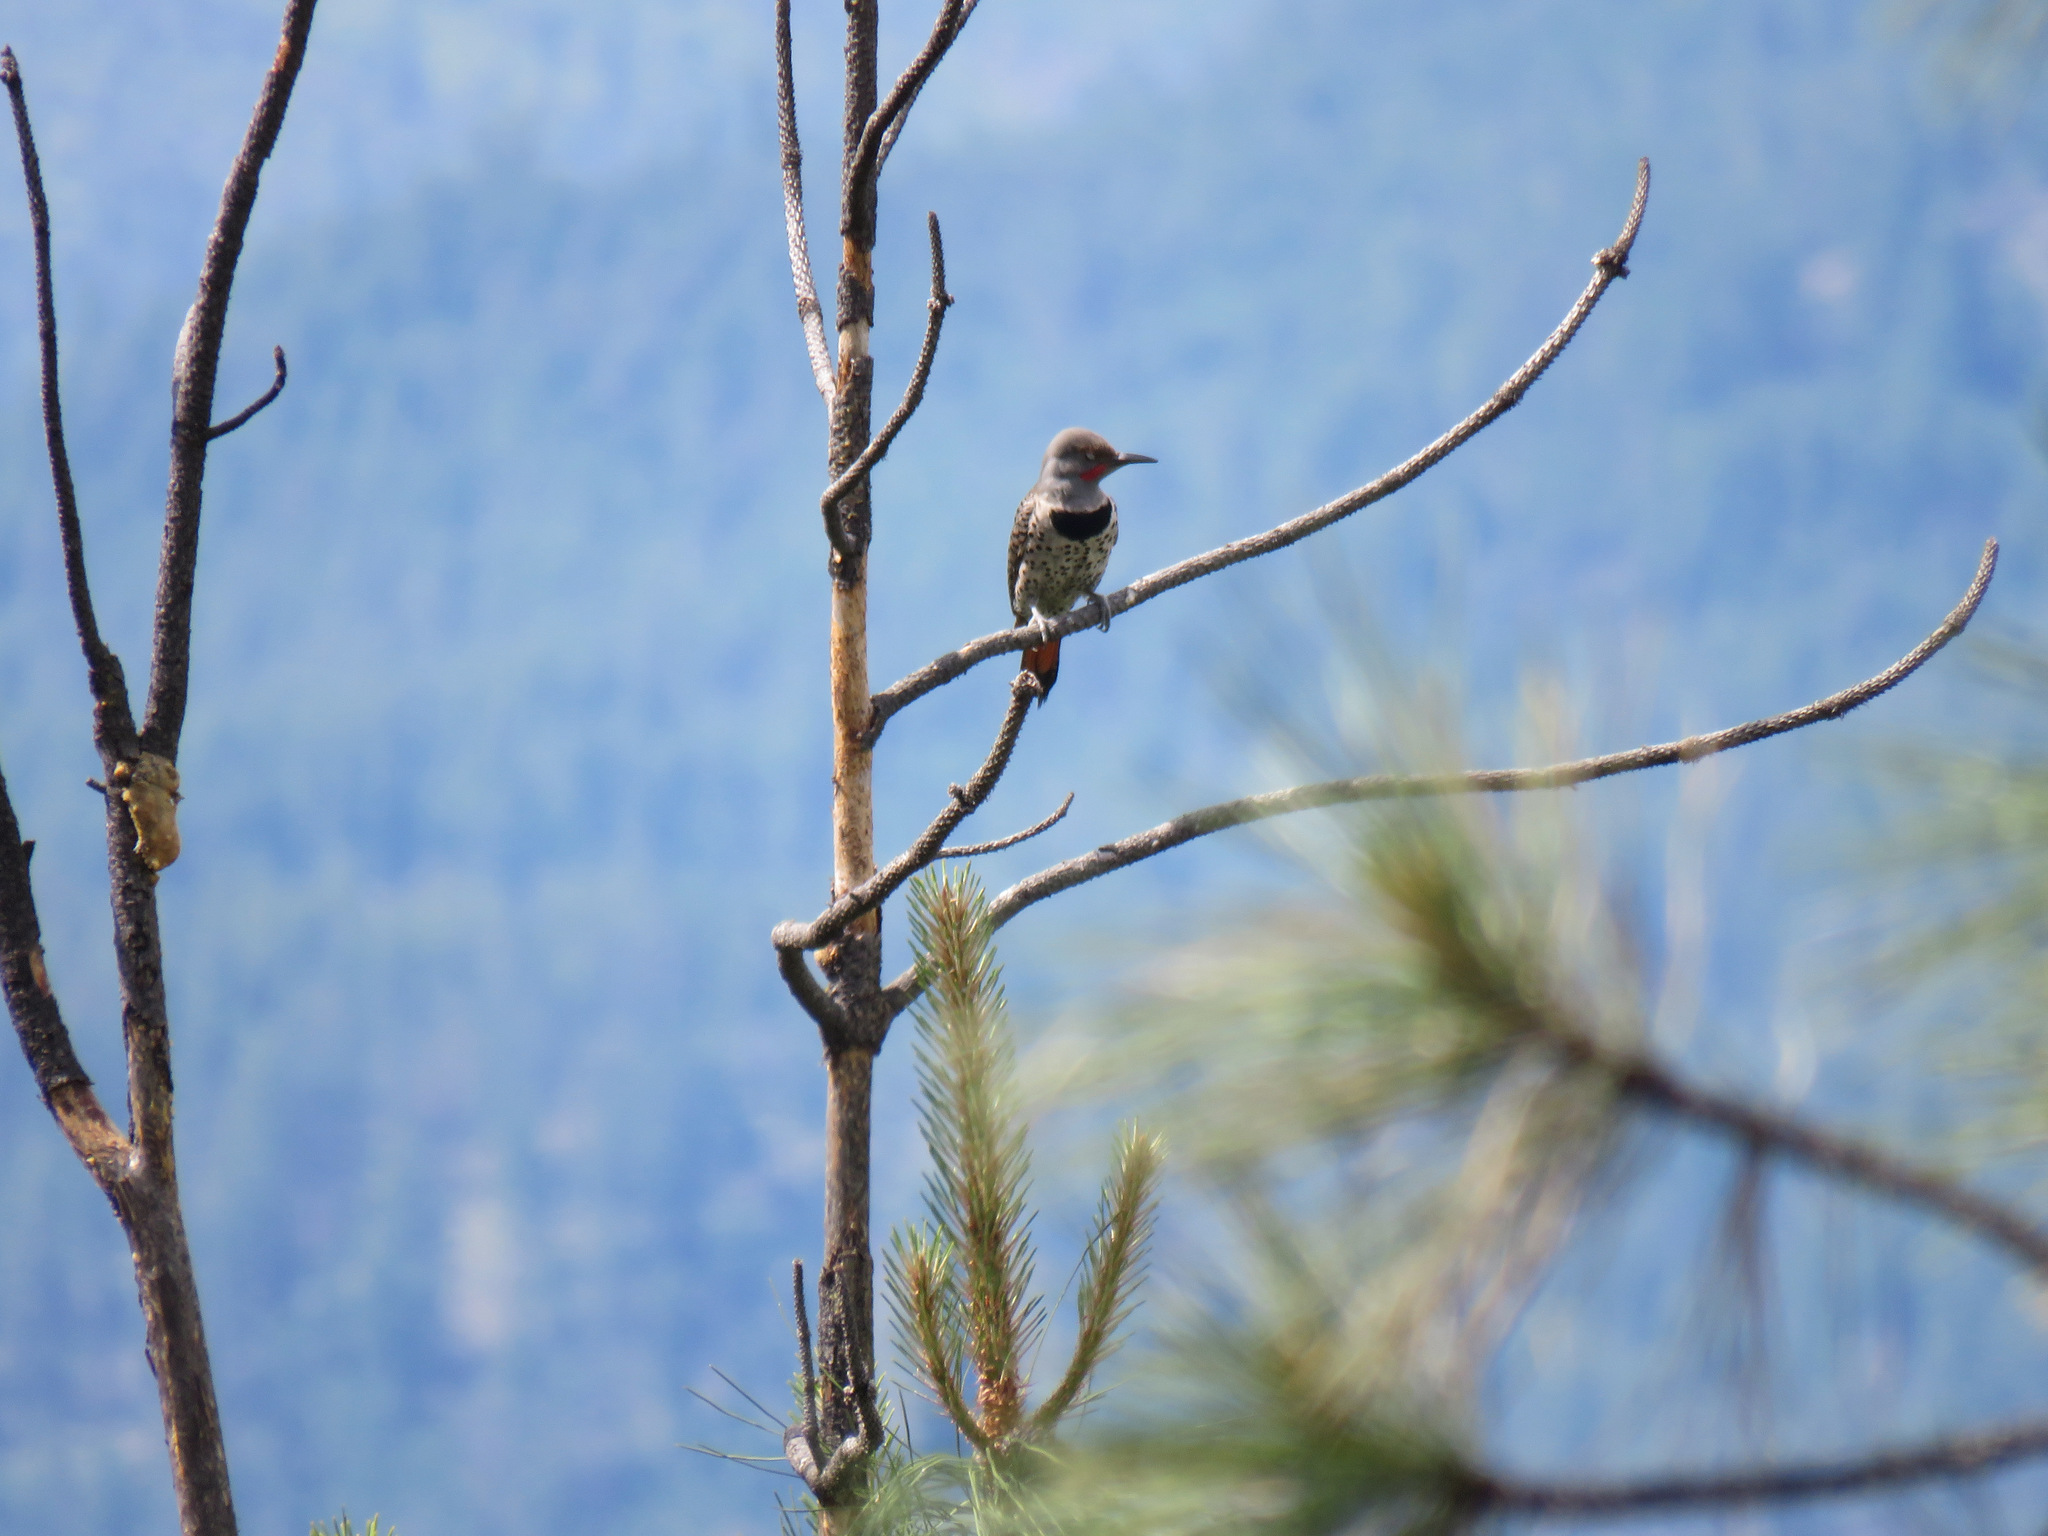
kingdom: Animalia
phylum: Chordata
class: Aves
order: Piciformes
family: Picidae
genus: Colaptes
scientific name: Colaptes auratus
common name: Northern flicker
